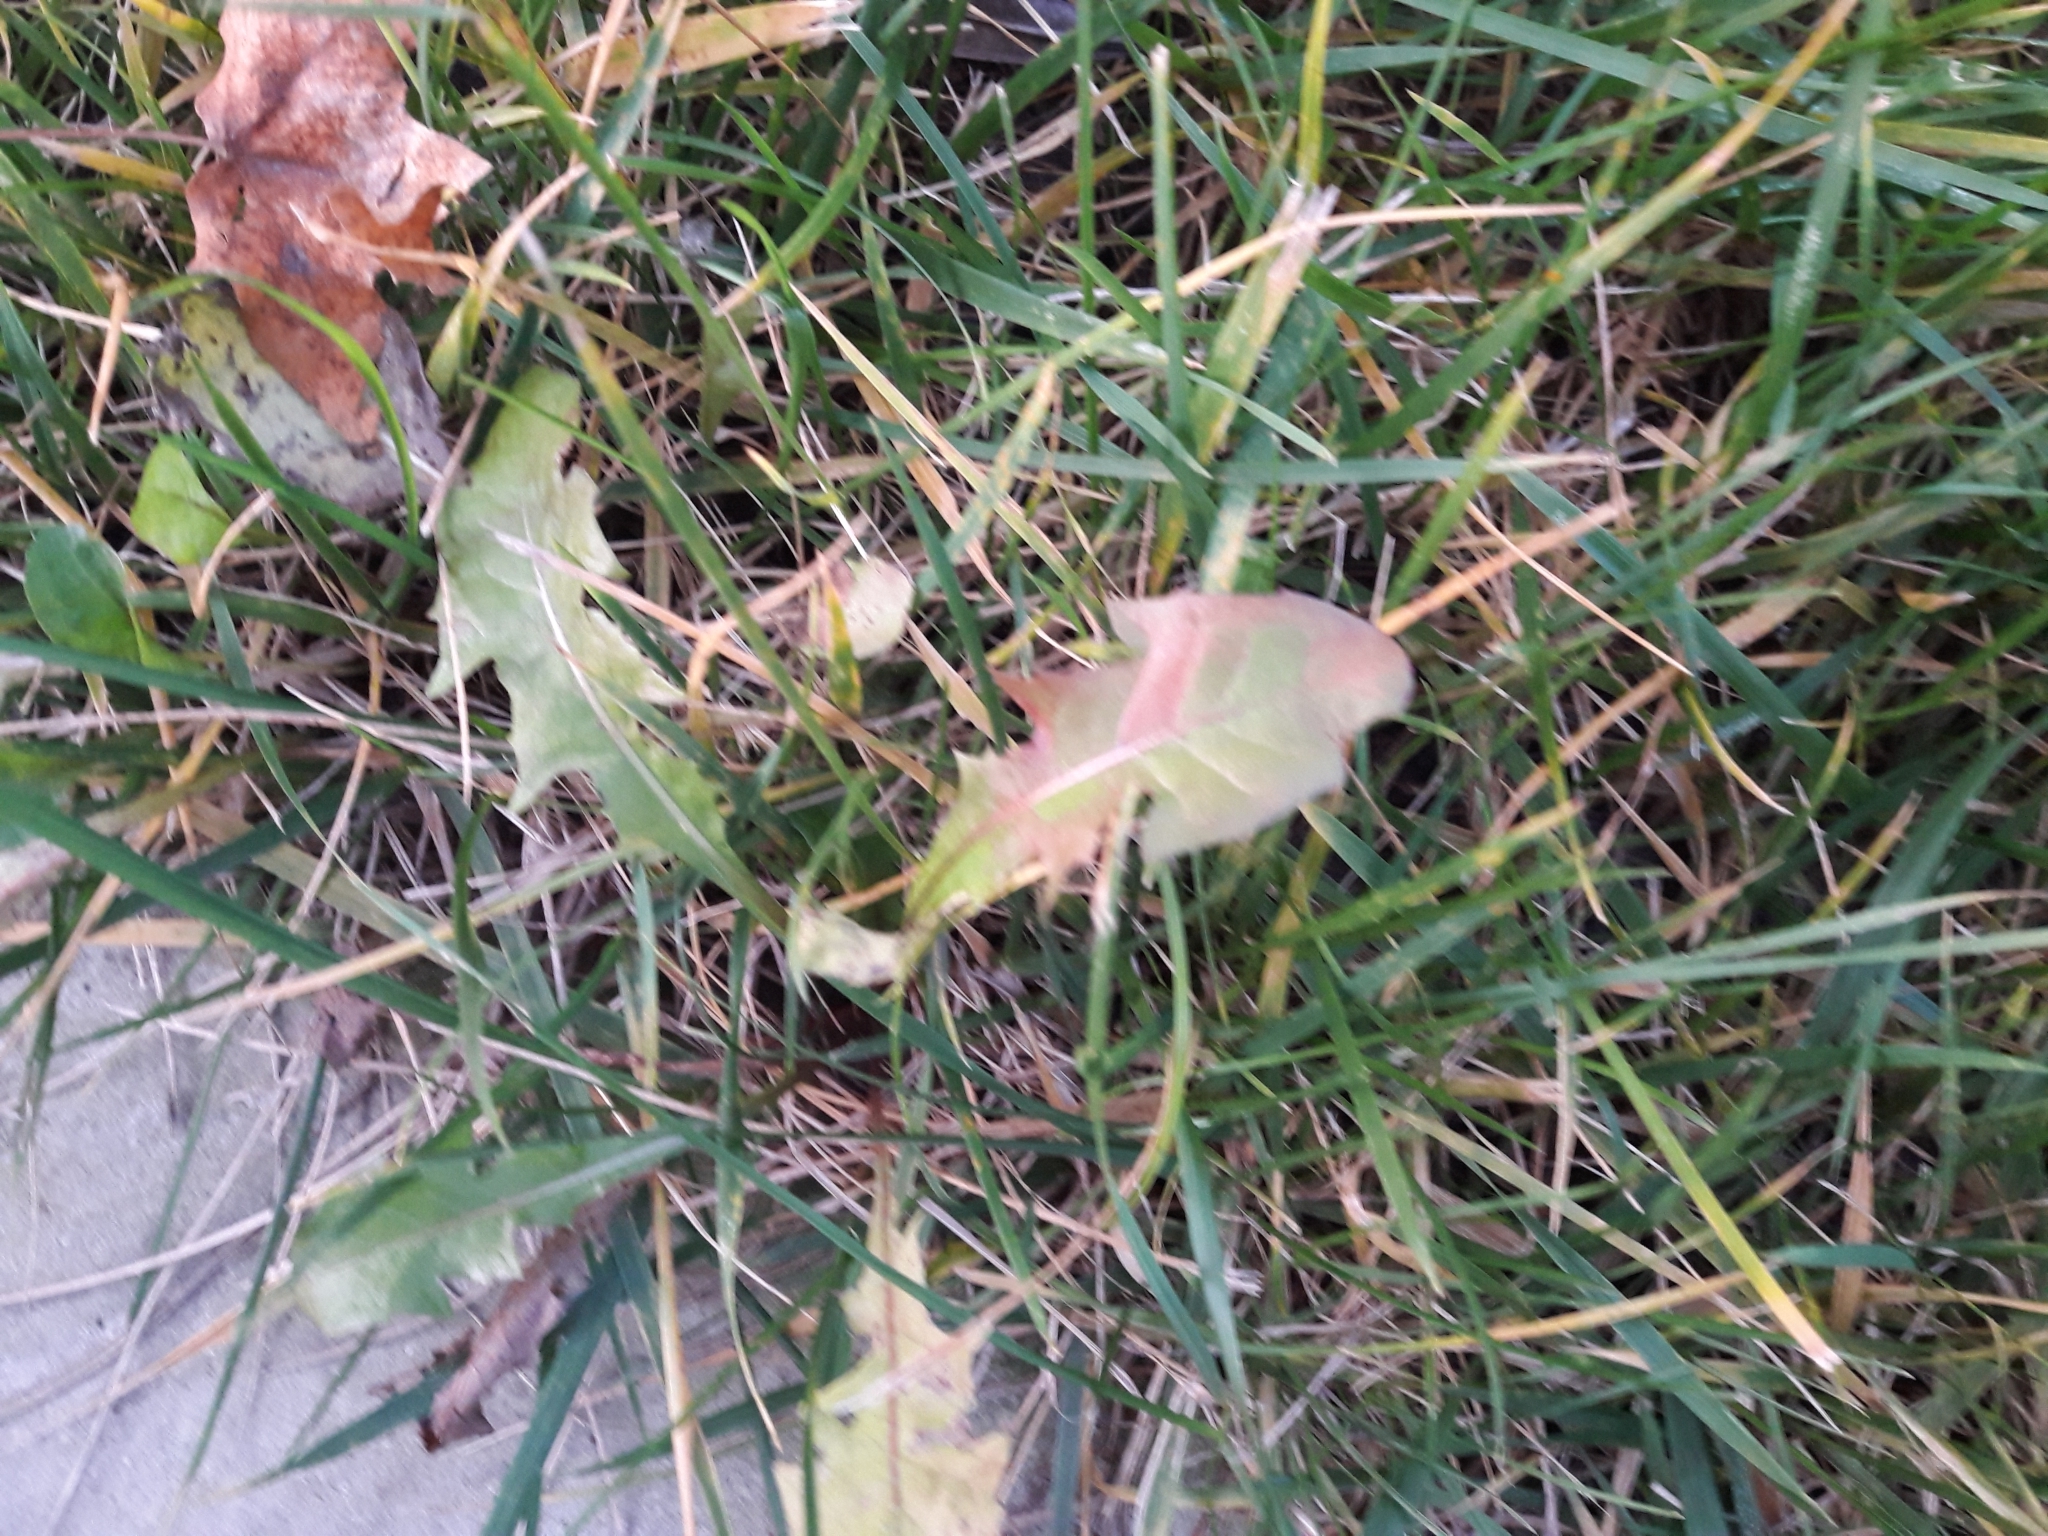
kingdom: Plantae
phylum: Tracheophyta
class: Magnoliopsida
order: Asterales
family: Asteraceae
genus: Taraxacum
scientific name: Taraxacum officinale
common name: Common dandelion
